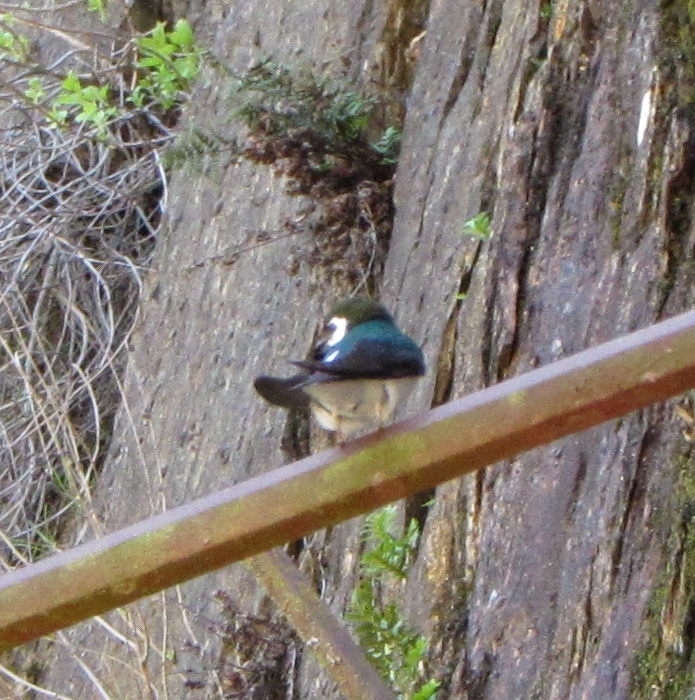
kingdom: Animalia
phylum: Chordata
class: Aves
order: Passeriformes
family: Hirundinidae
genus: Tachycineta
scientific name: Tachycineta thalassina
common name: Violet-green swallow
